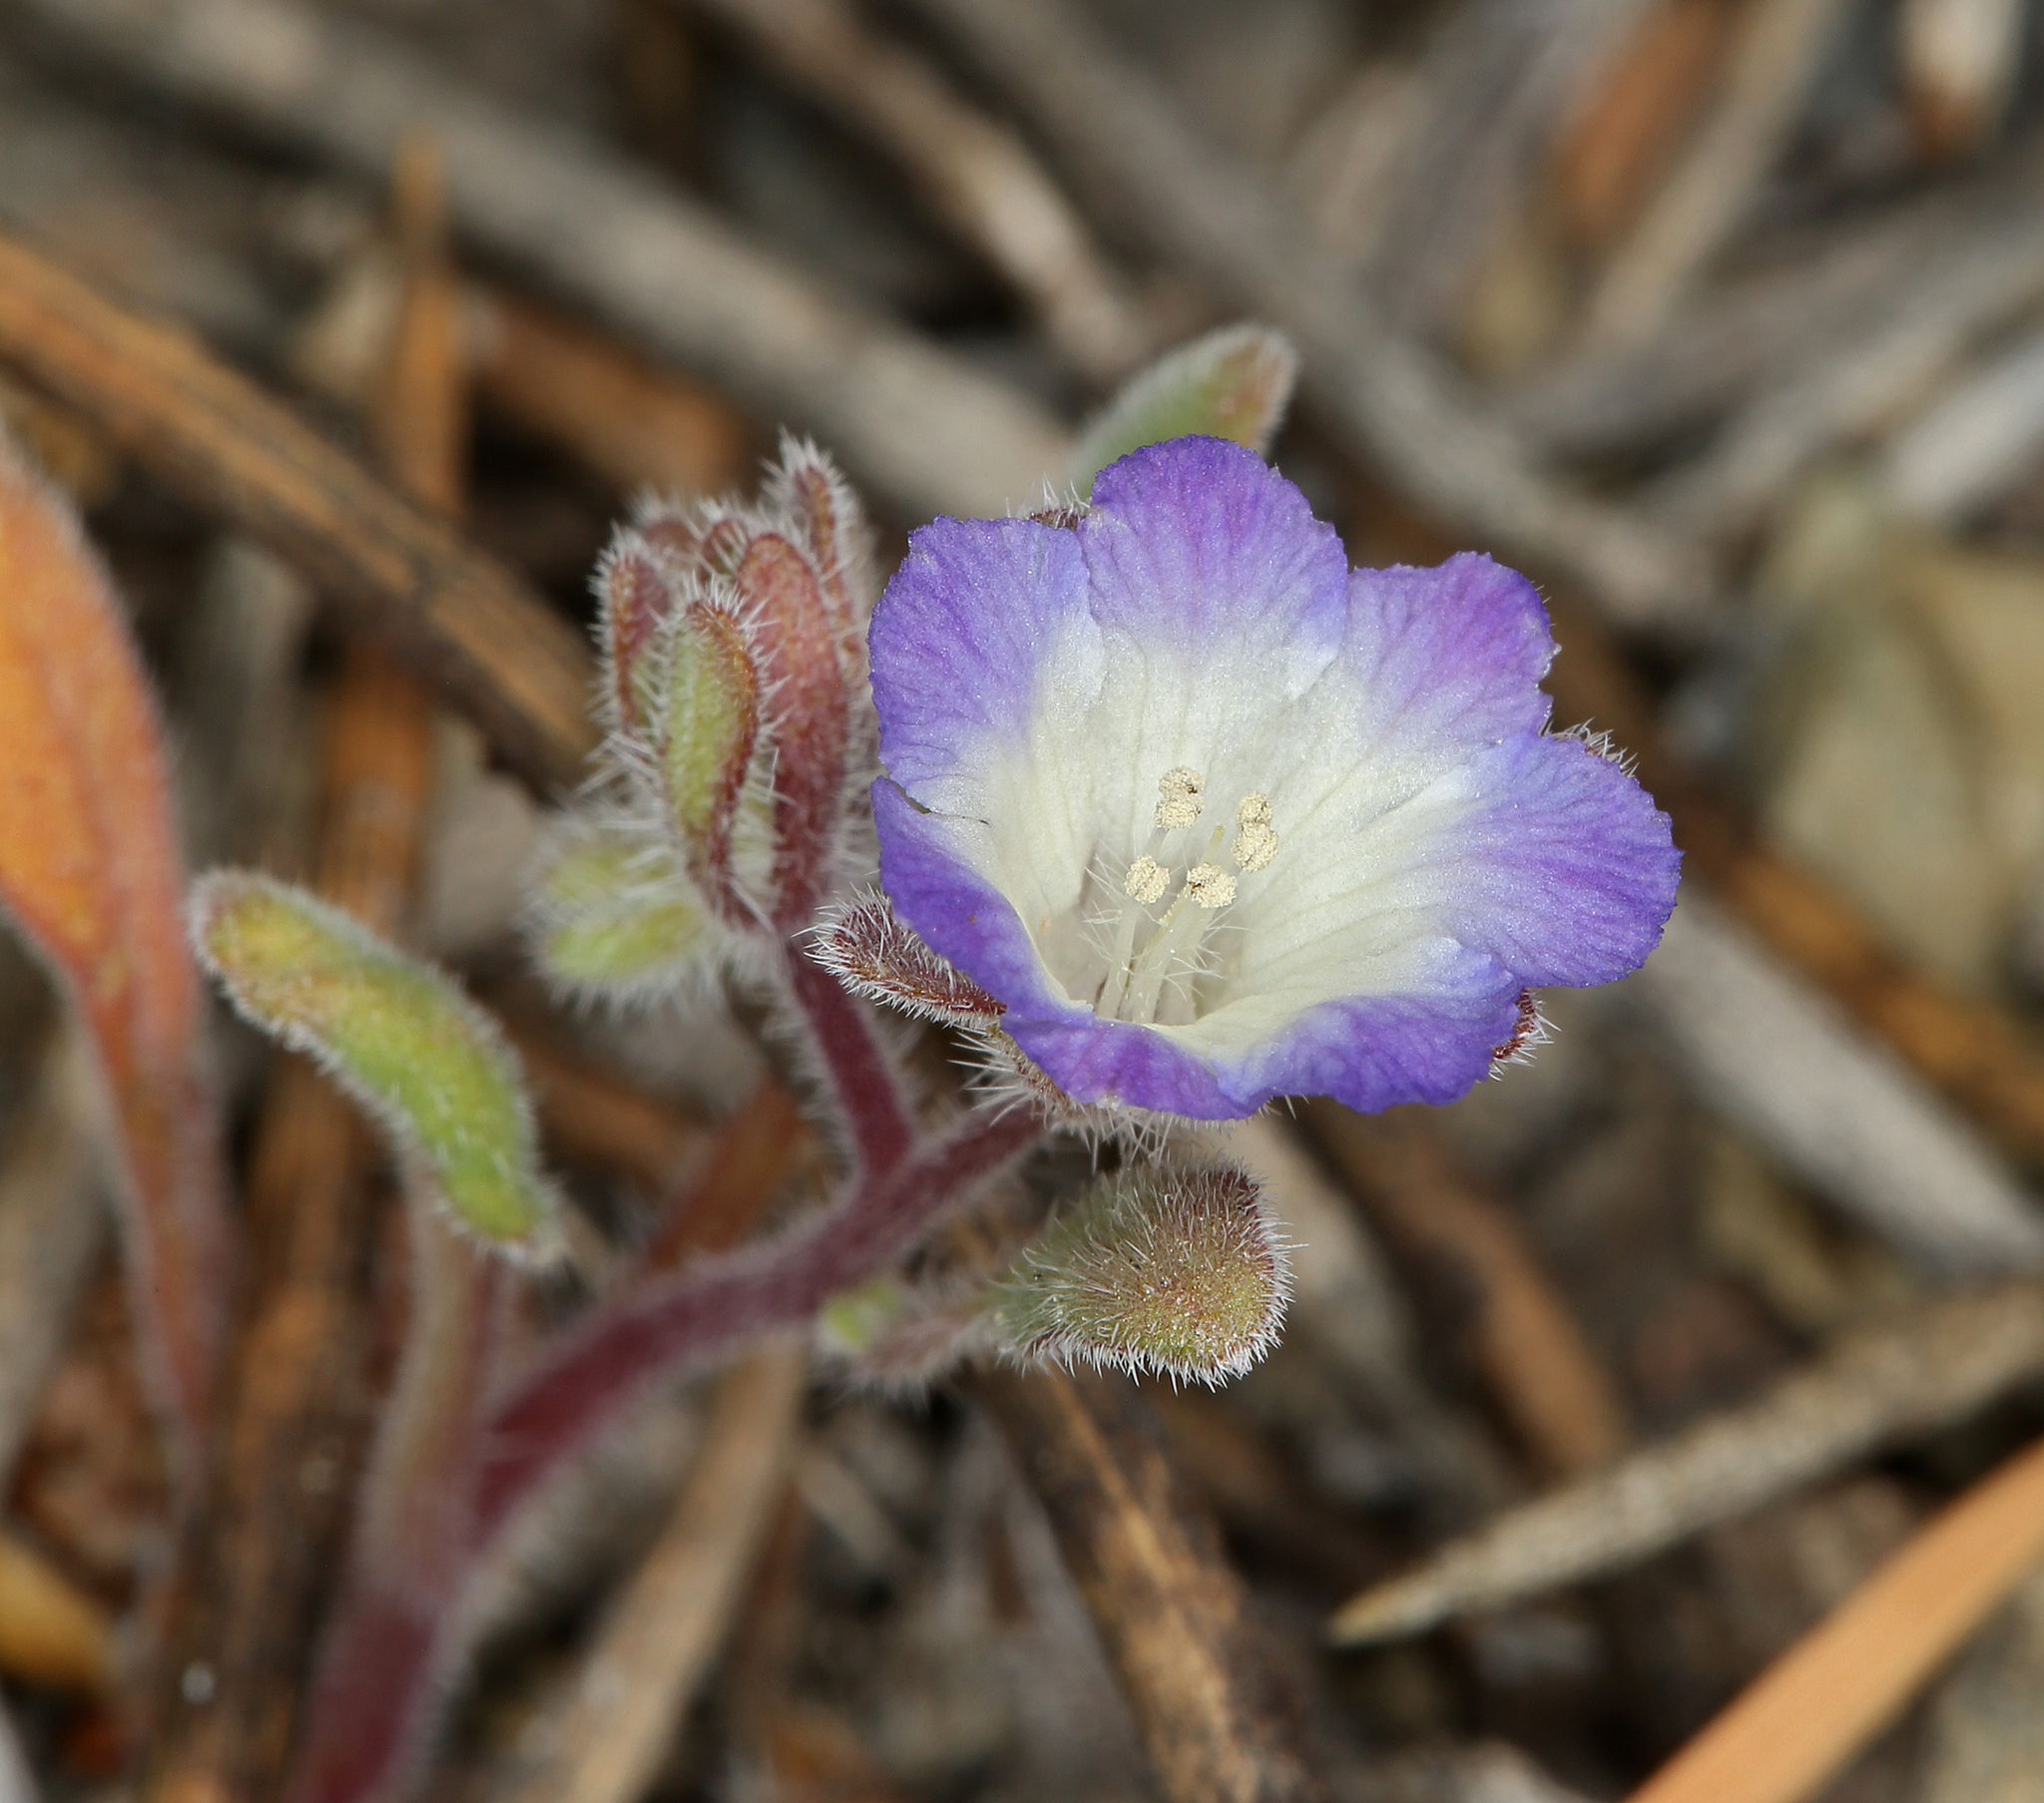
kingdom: Plantae
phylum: Tracheophyta
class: Magnoliopsida
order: Boraginales
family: Hydrophyllaceae
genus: Phacelia
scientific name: Phacelia curvipes
